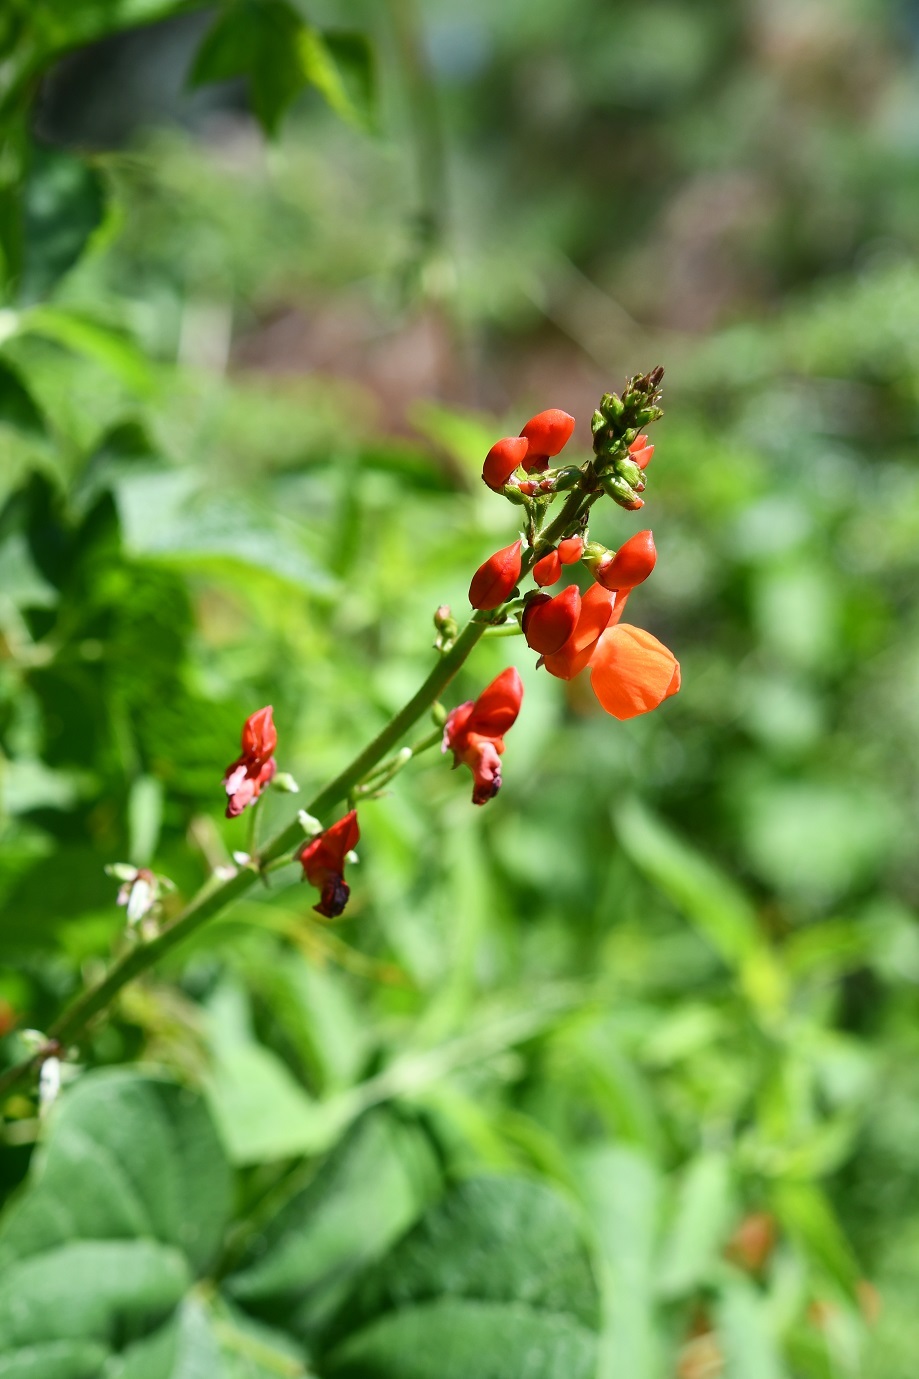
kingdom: Plantae
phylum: Tracheophyta
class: Magnoliopsida
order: Fabales
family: Fabaceae
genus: Phaseolus
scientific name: Phaseolus coccineus
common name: Runner bean
